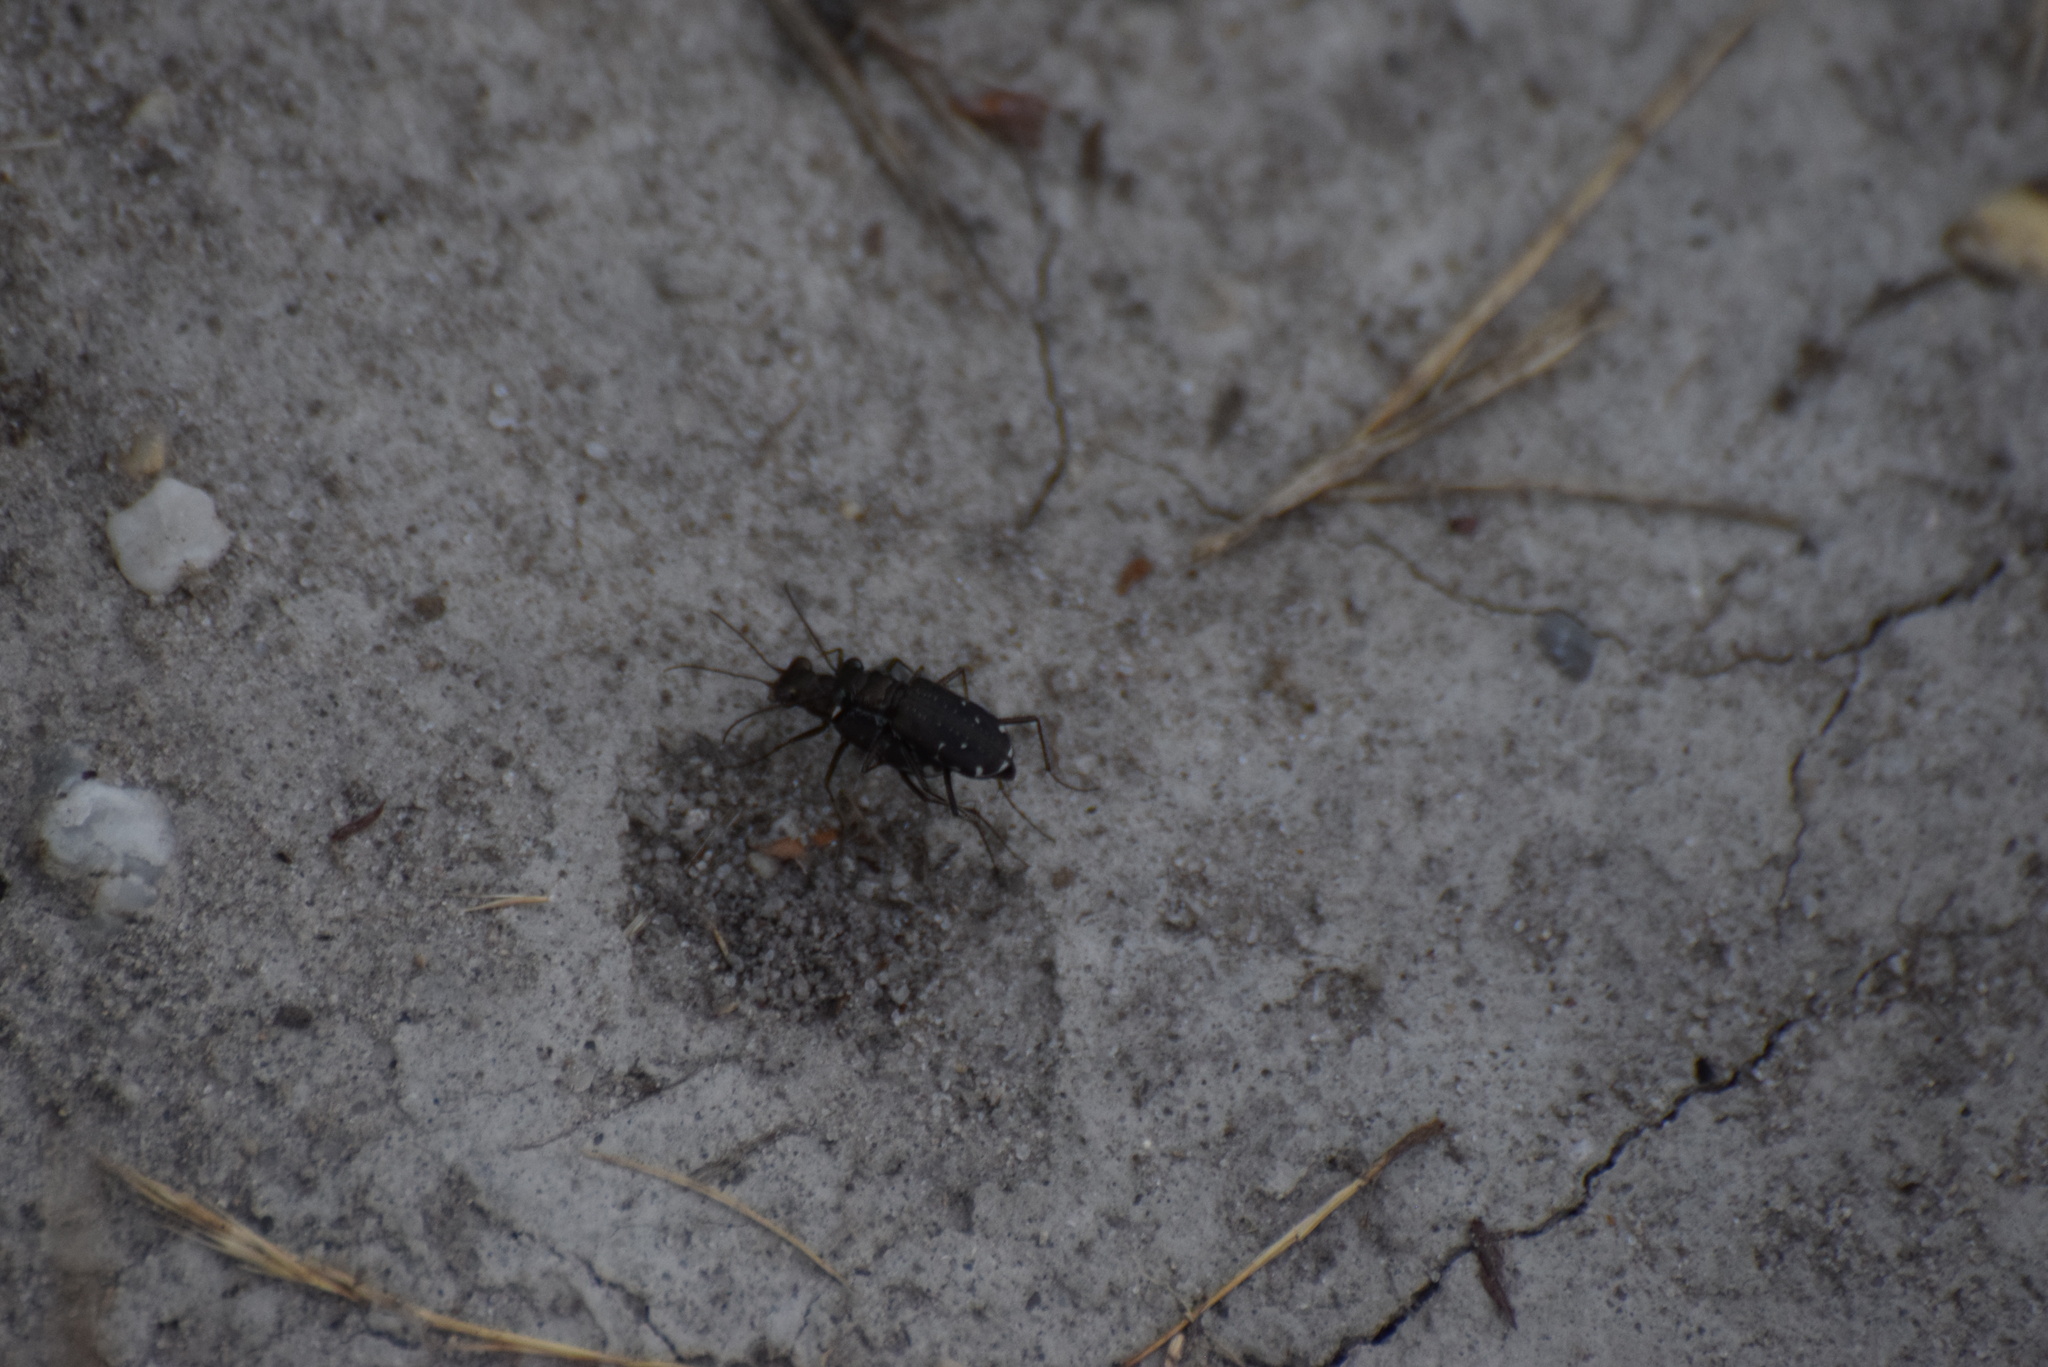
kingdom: Animalia
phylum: Arthropoda
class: Insecta
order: Coleoptera
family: Carabidae
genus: Cicindela
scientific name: Cicindela punctulata
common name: Punctured tiger beetle
